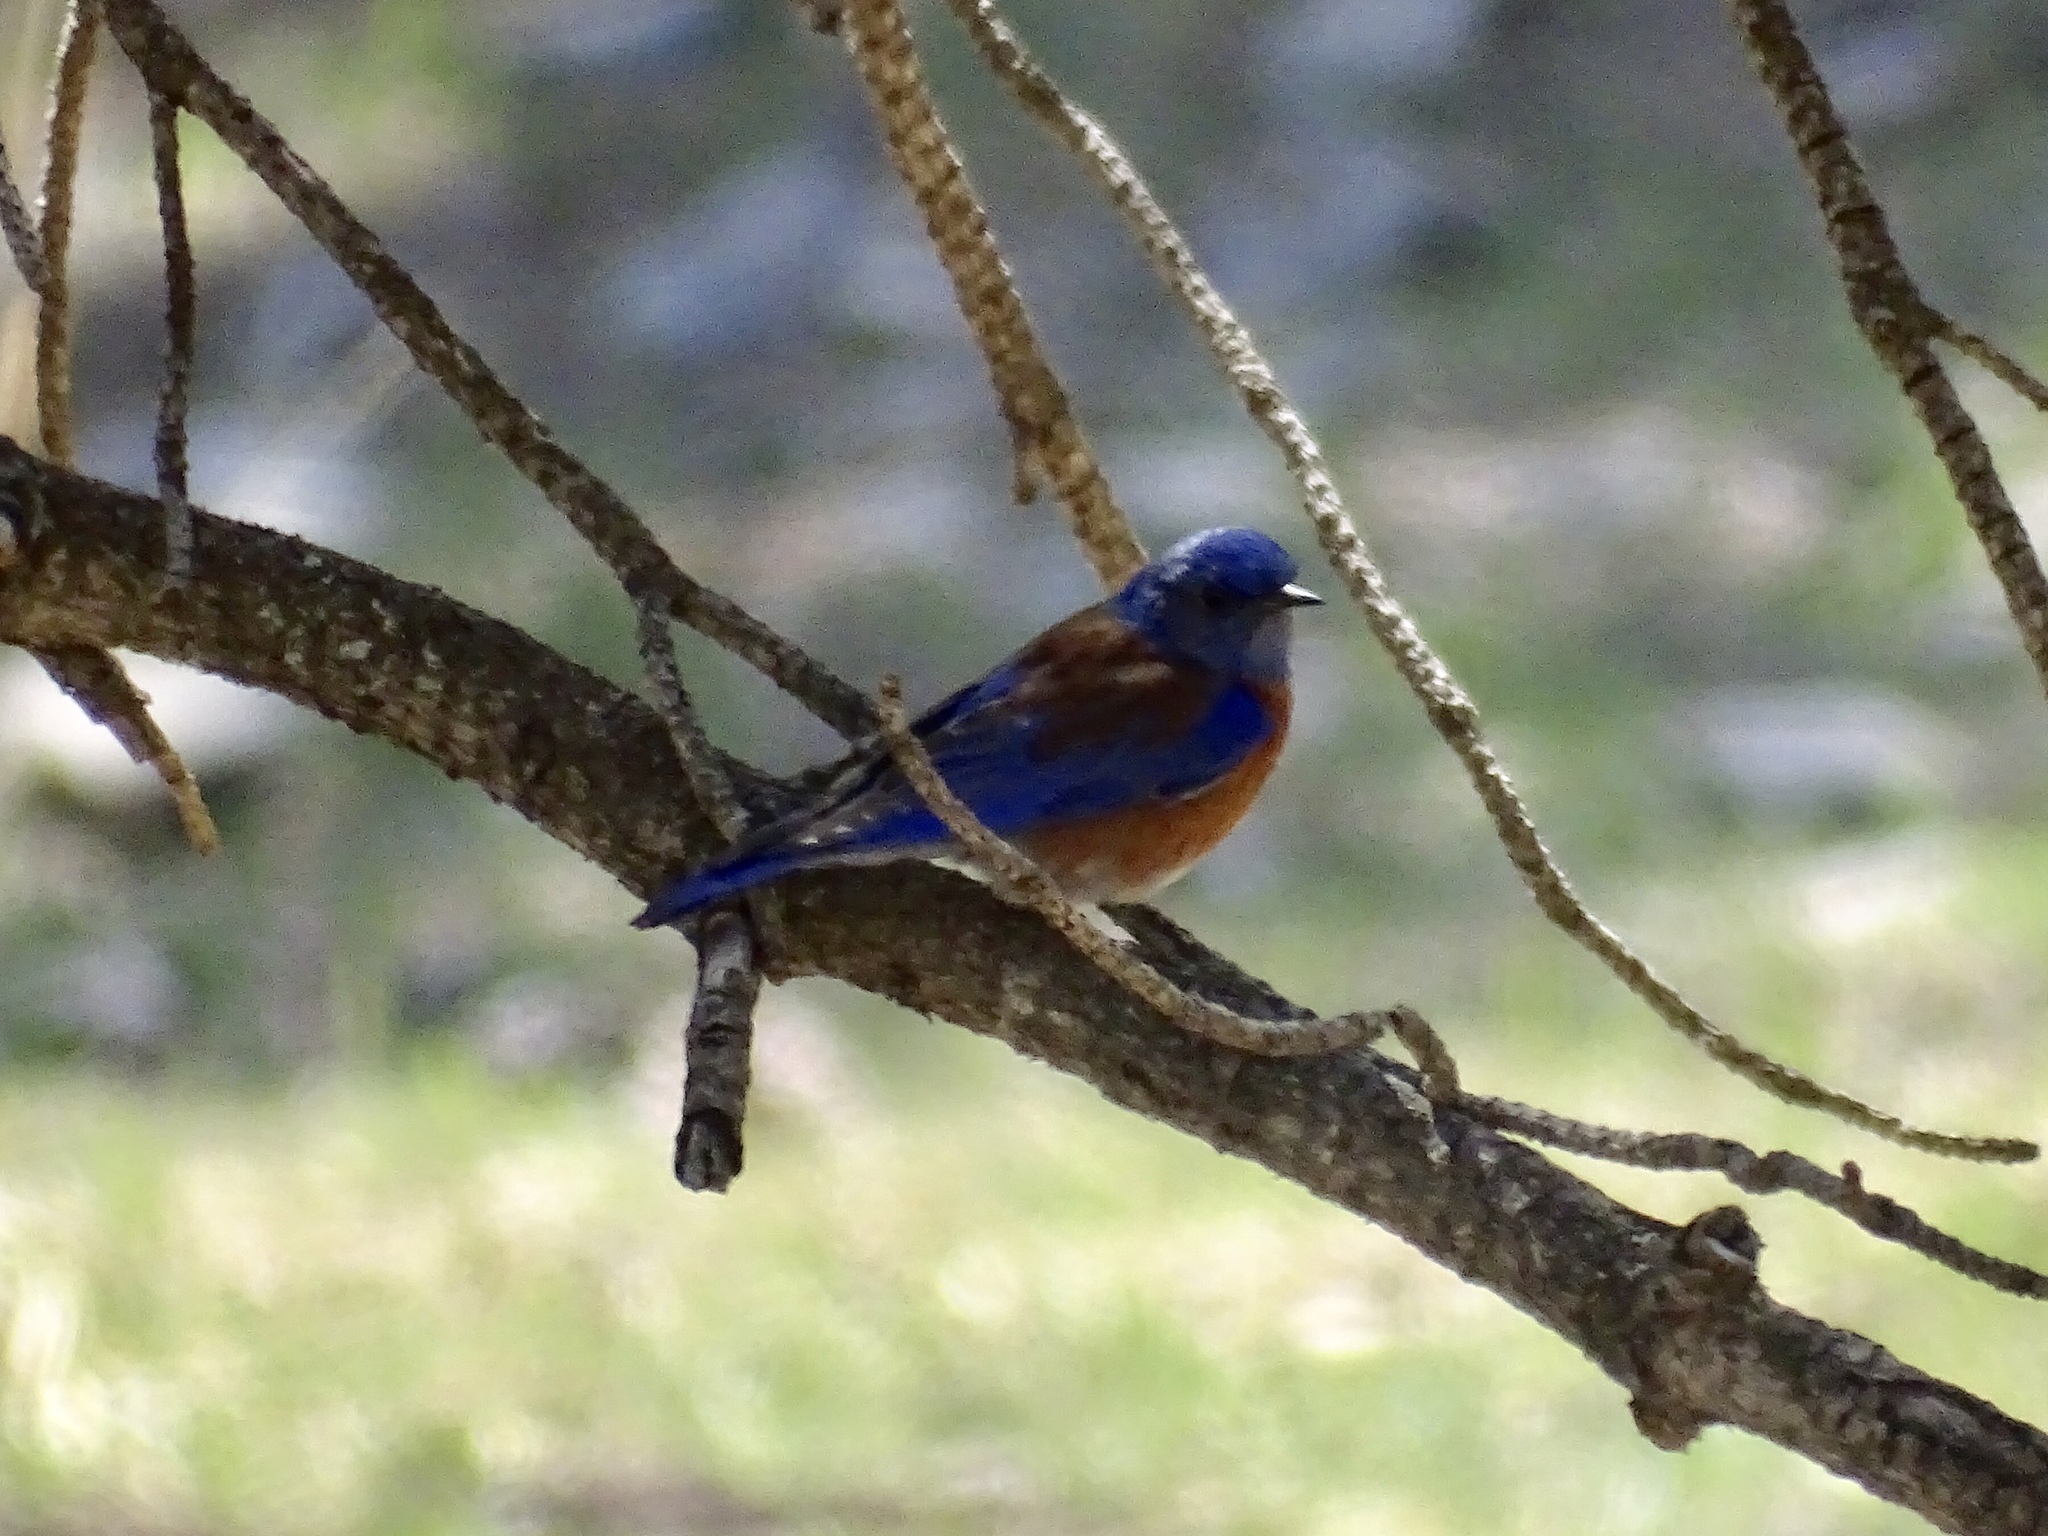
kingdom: Animalia
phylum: Chordata
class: Aves
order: Passeriformes
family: Turdidae
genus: Sialia
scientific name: Sialia mexicana
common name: Western bluebird
